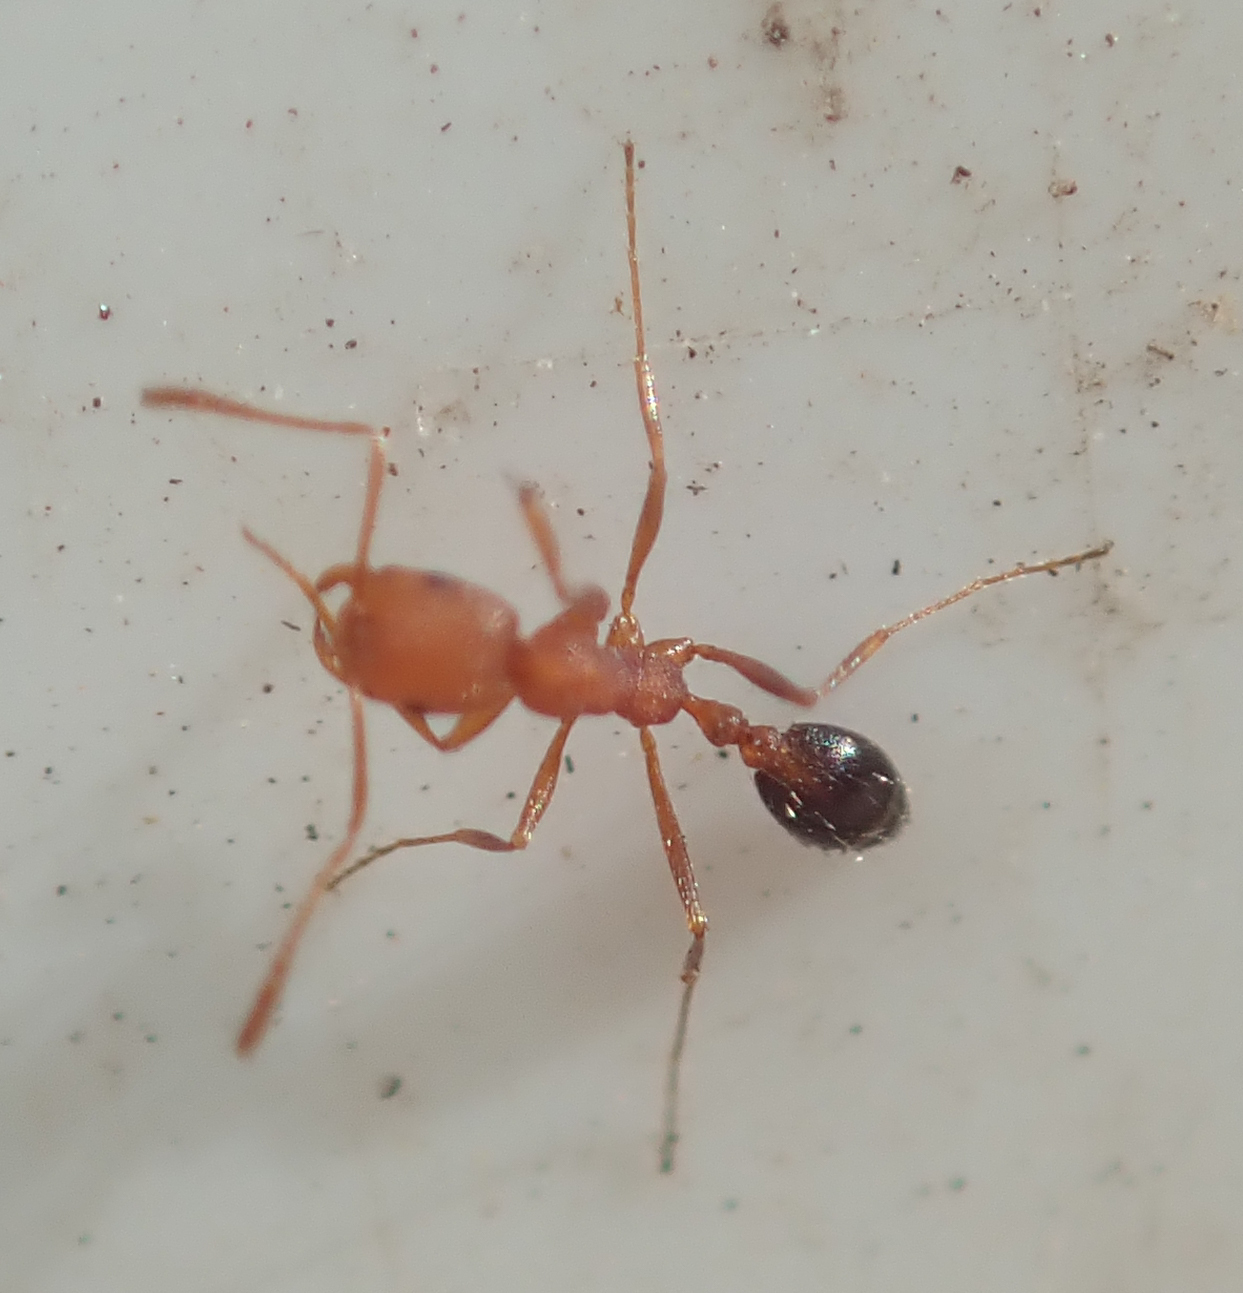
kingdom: Animalia
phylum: Arthropoda
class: Insecta
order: Hymenoptera
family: Formicidae
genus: Monomorium
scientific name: Monomorium rufulum
